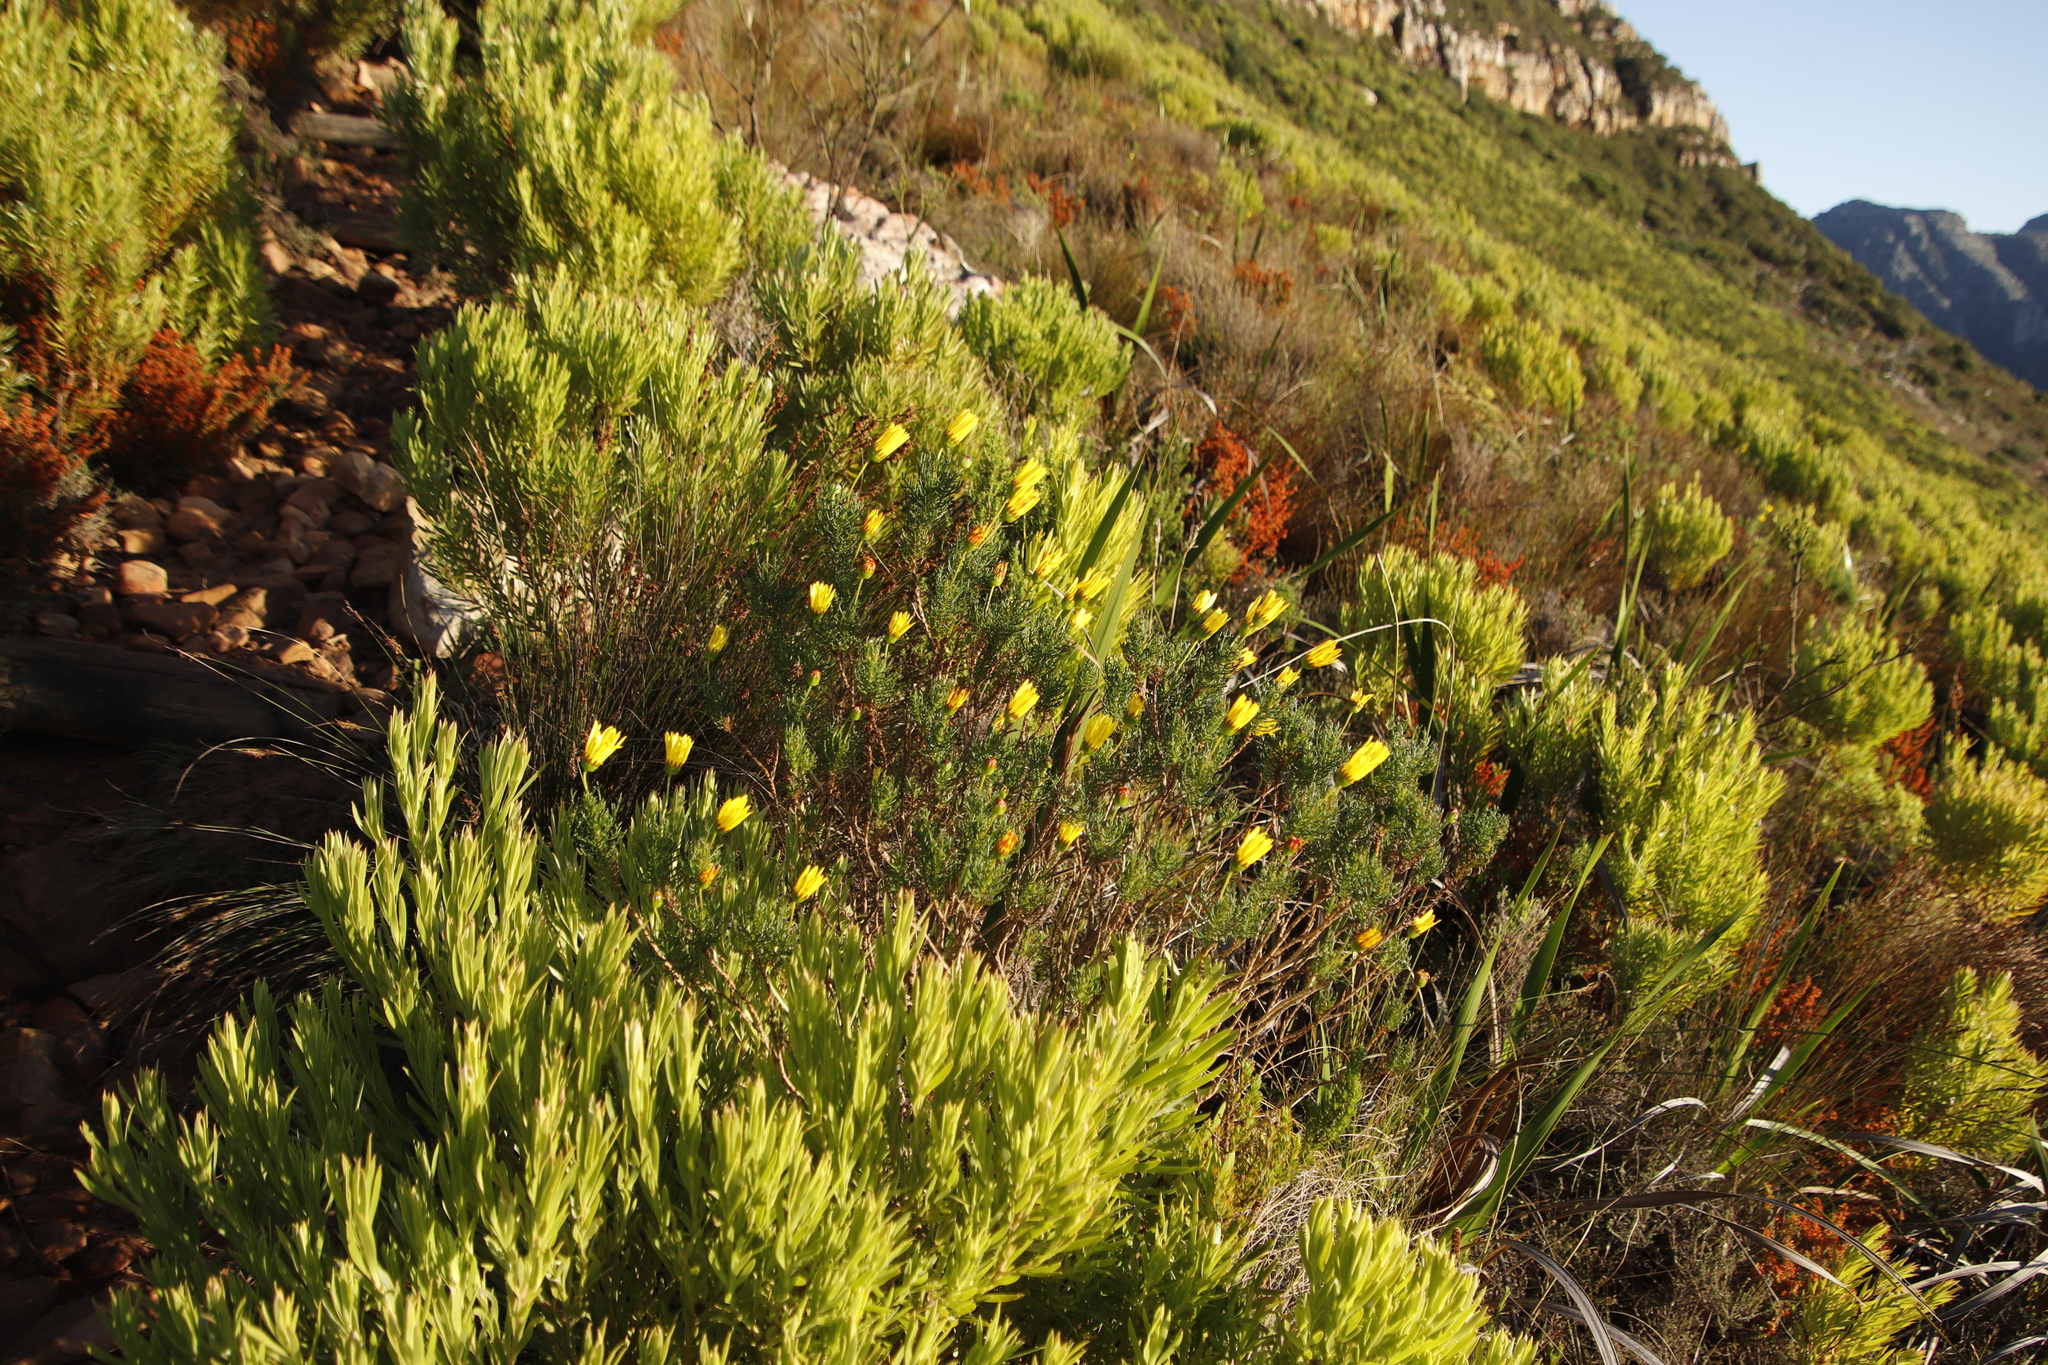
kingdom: Plantae
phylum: Tracheophyta
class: Magnoliopsida
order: Asterales
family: Asteraceae
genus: Euryops
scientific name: Euryops abrotanifolius
